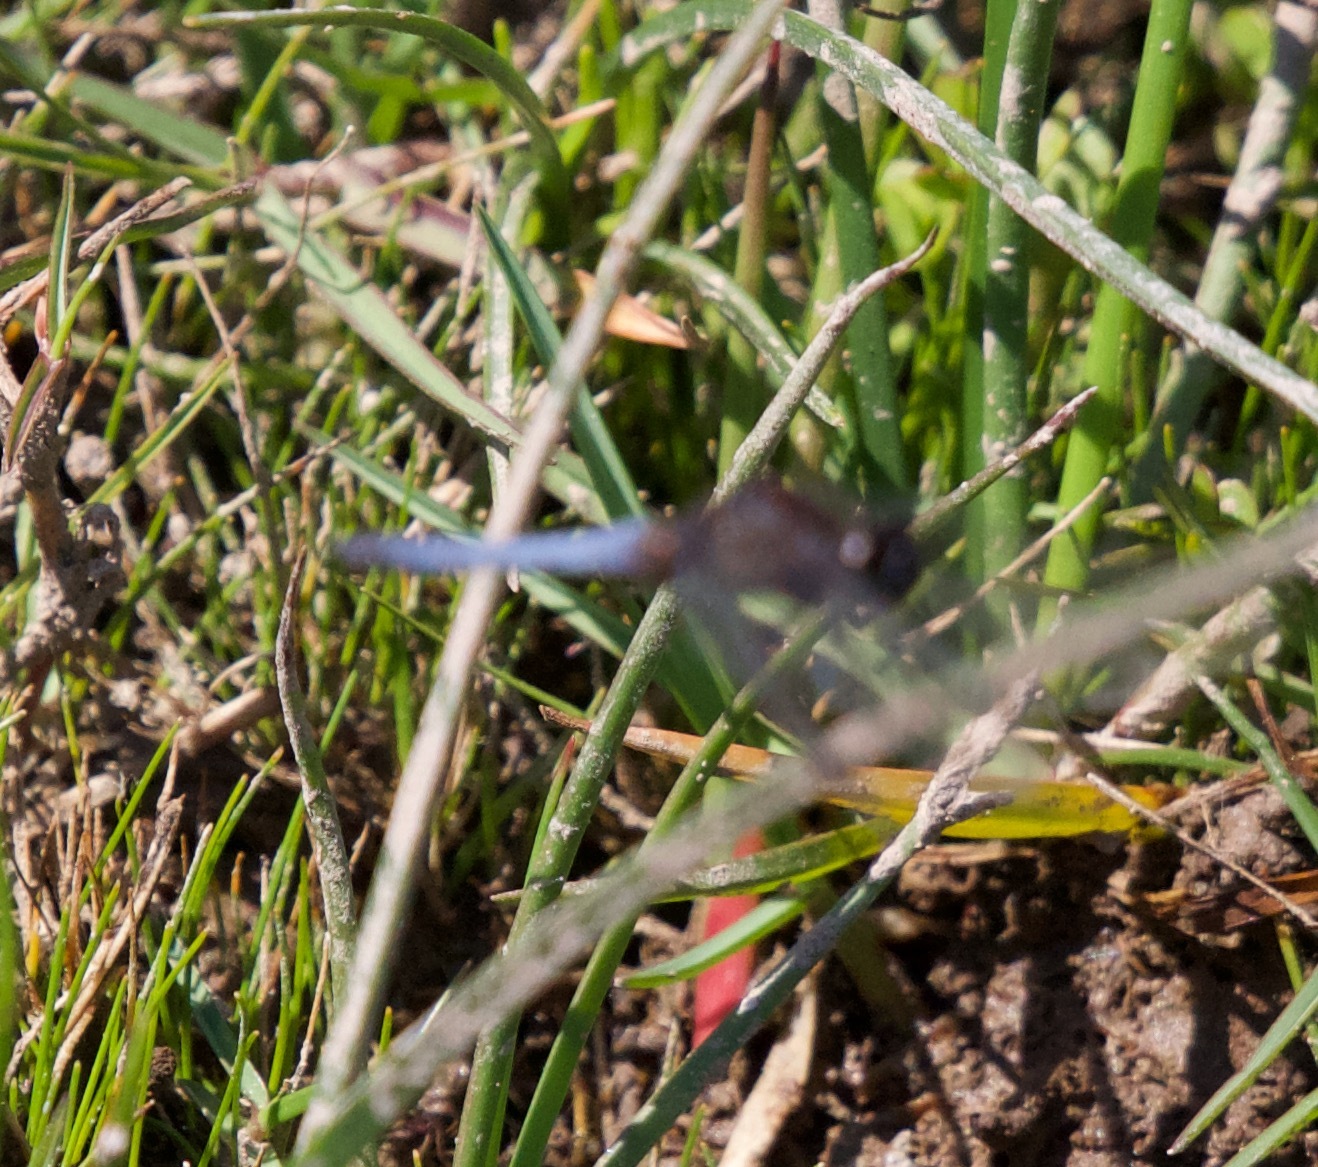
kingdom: Animalia
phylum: Arthropoda
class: Insecta
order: Odonata
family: Libellulidae
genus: Erythrodiplax
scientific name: Erythrodiplax connata
